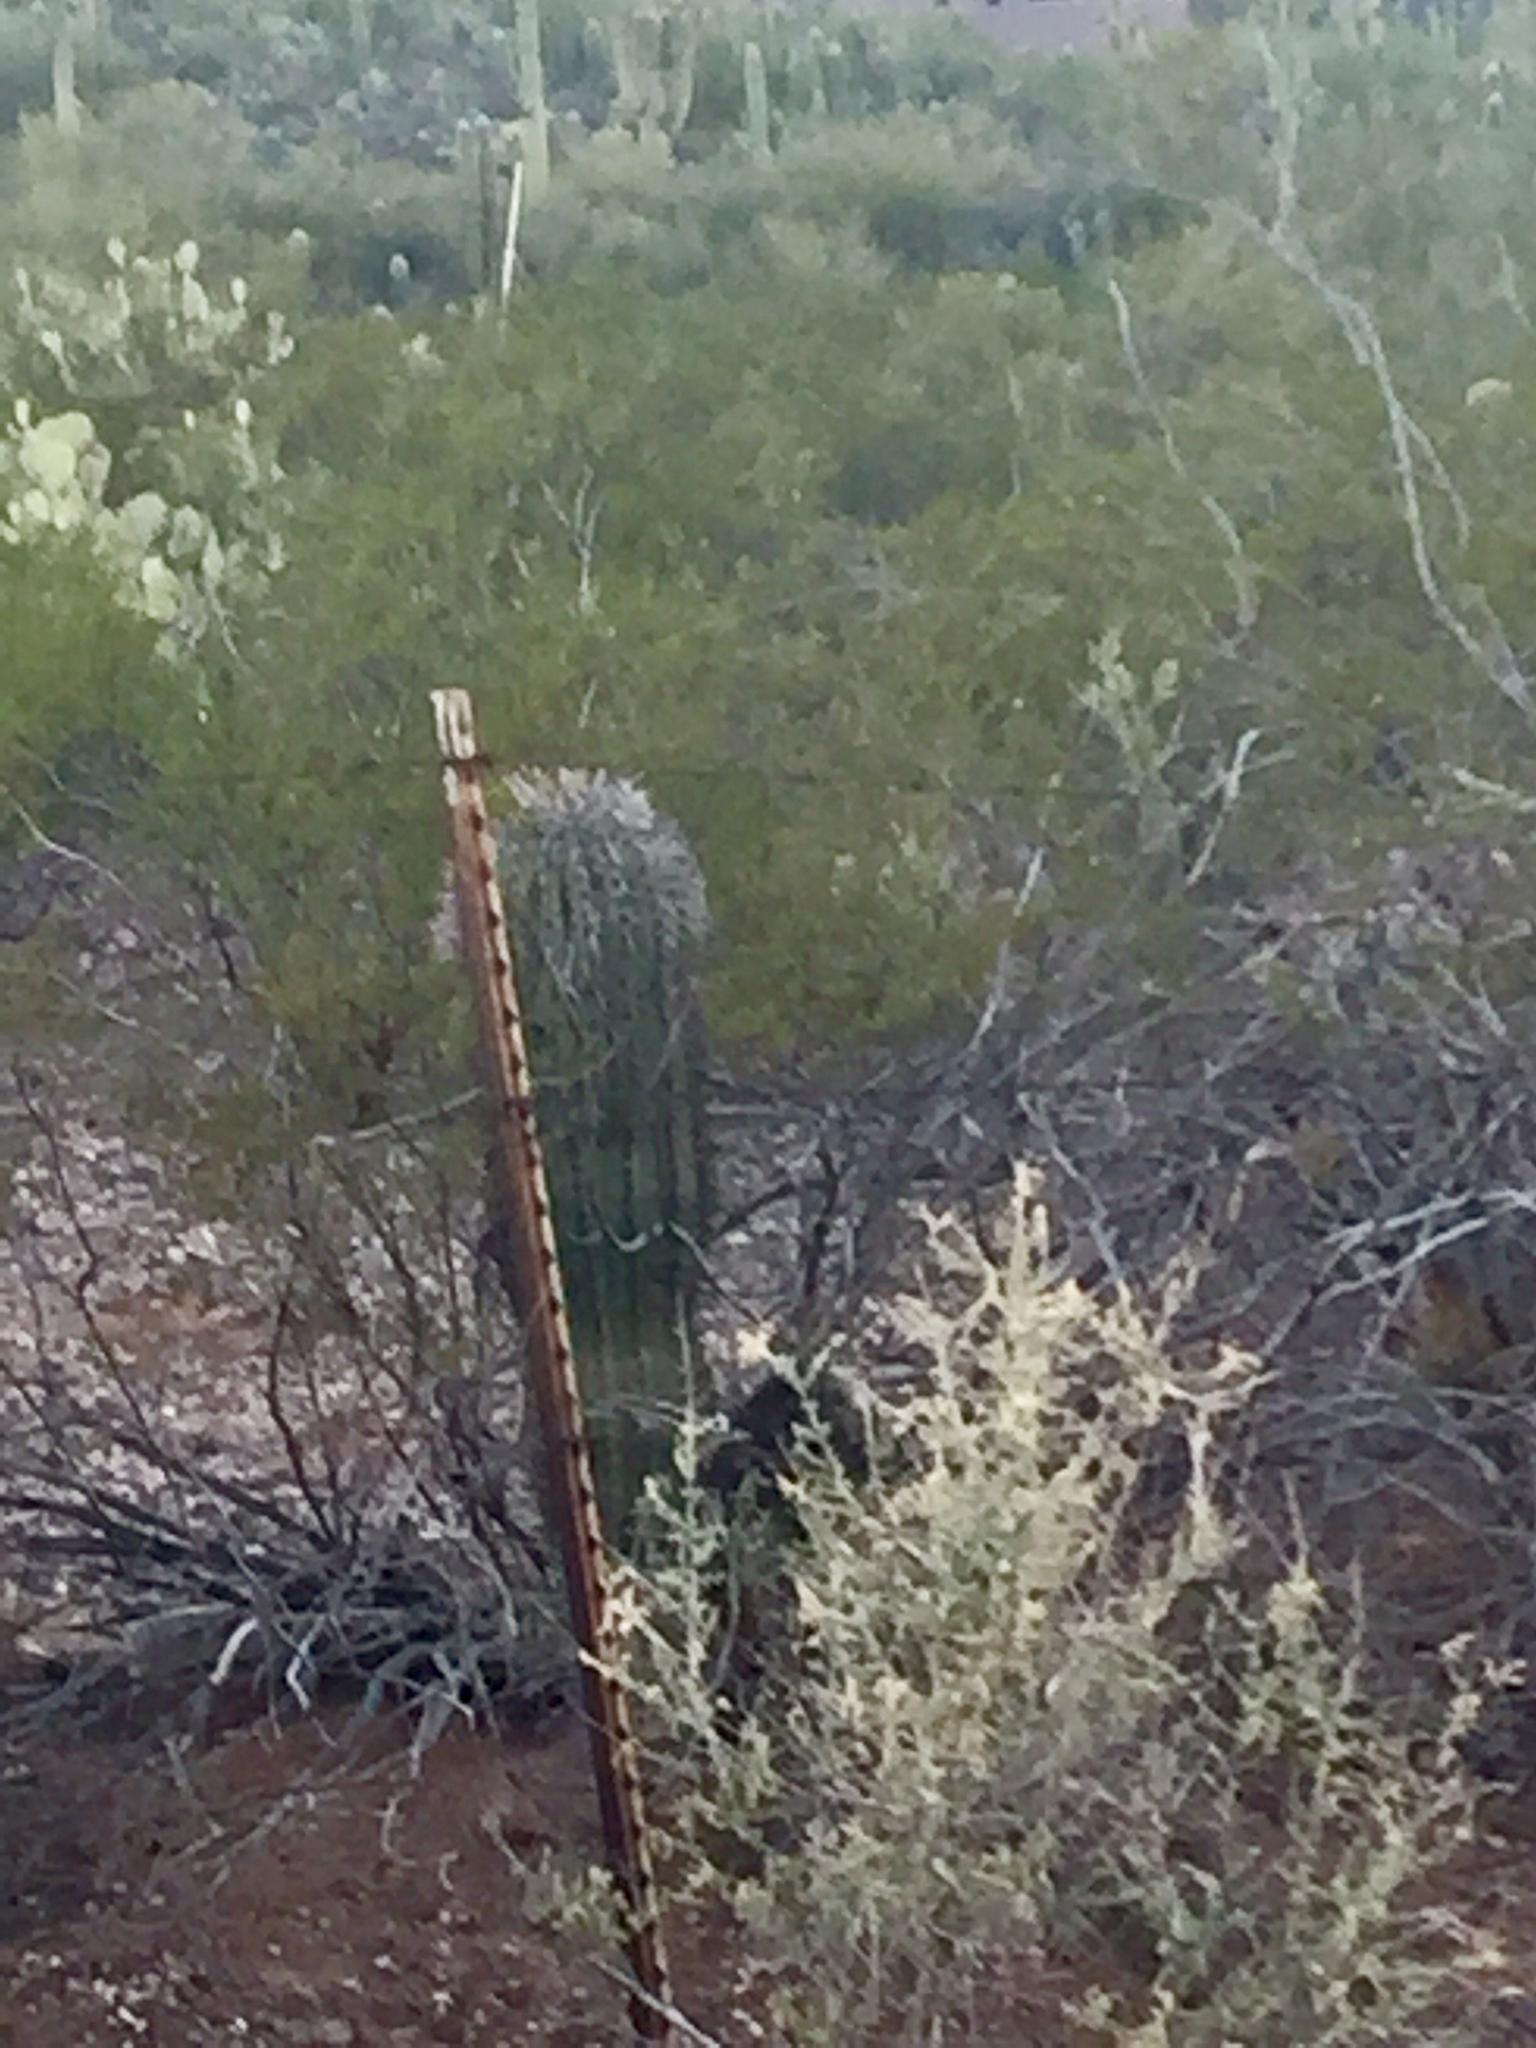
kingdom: Plantae
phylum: Tracheophyta
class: Magnoliopsida
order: Caryophyllales
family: Cactaceae
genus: Carnegiea
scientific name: Carnegiea gigantea
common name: Saguaro
